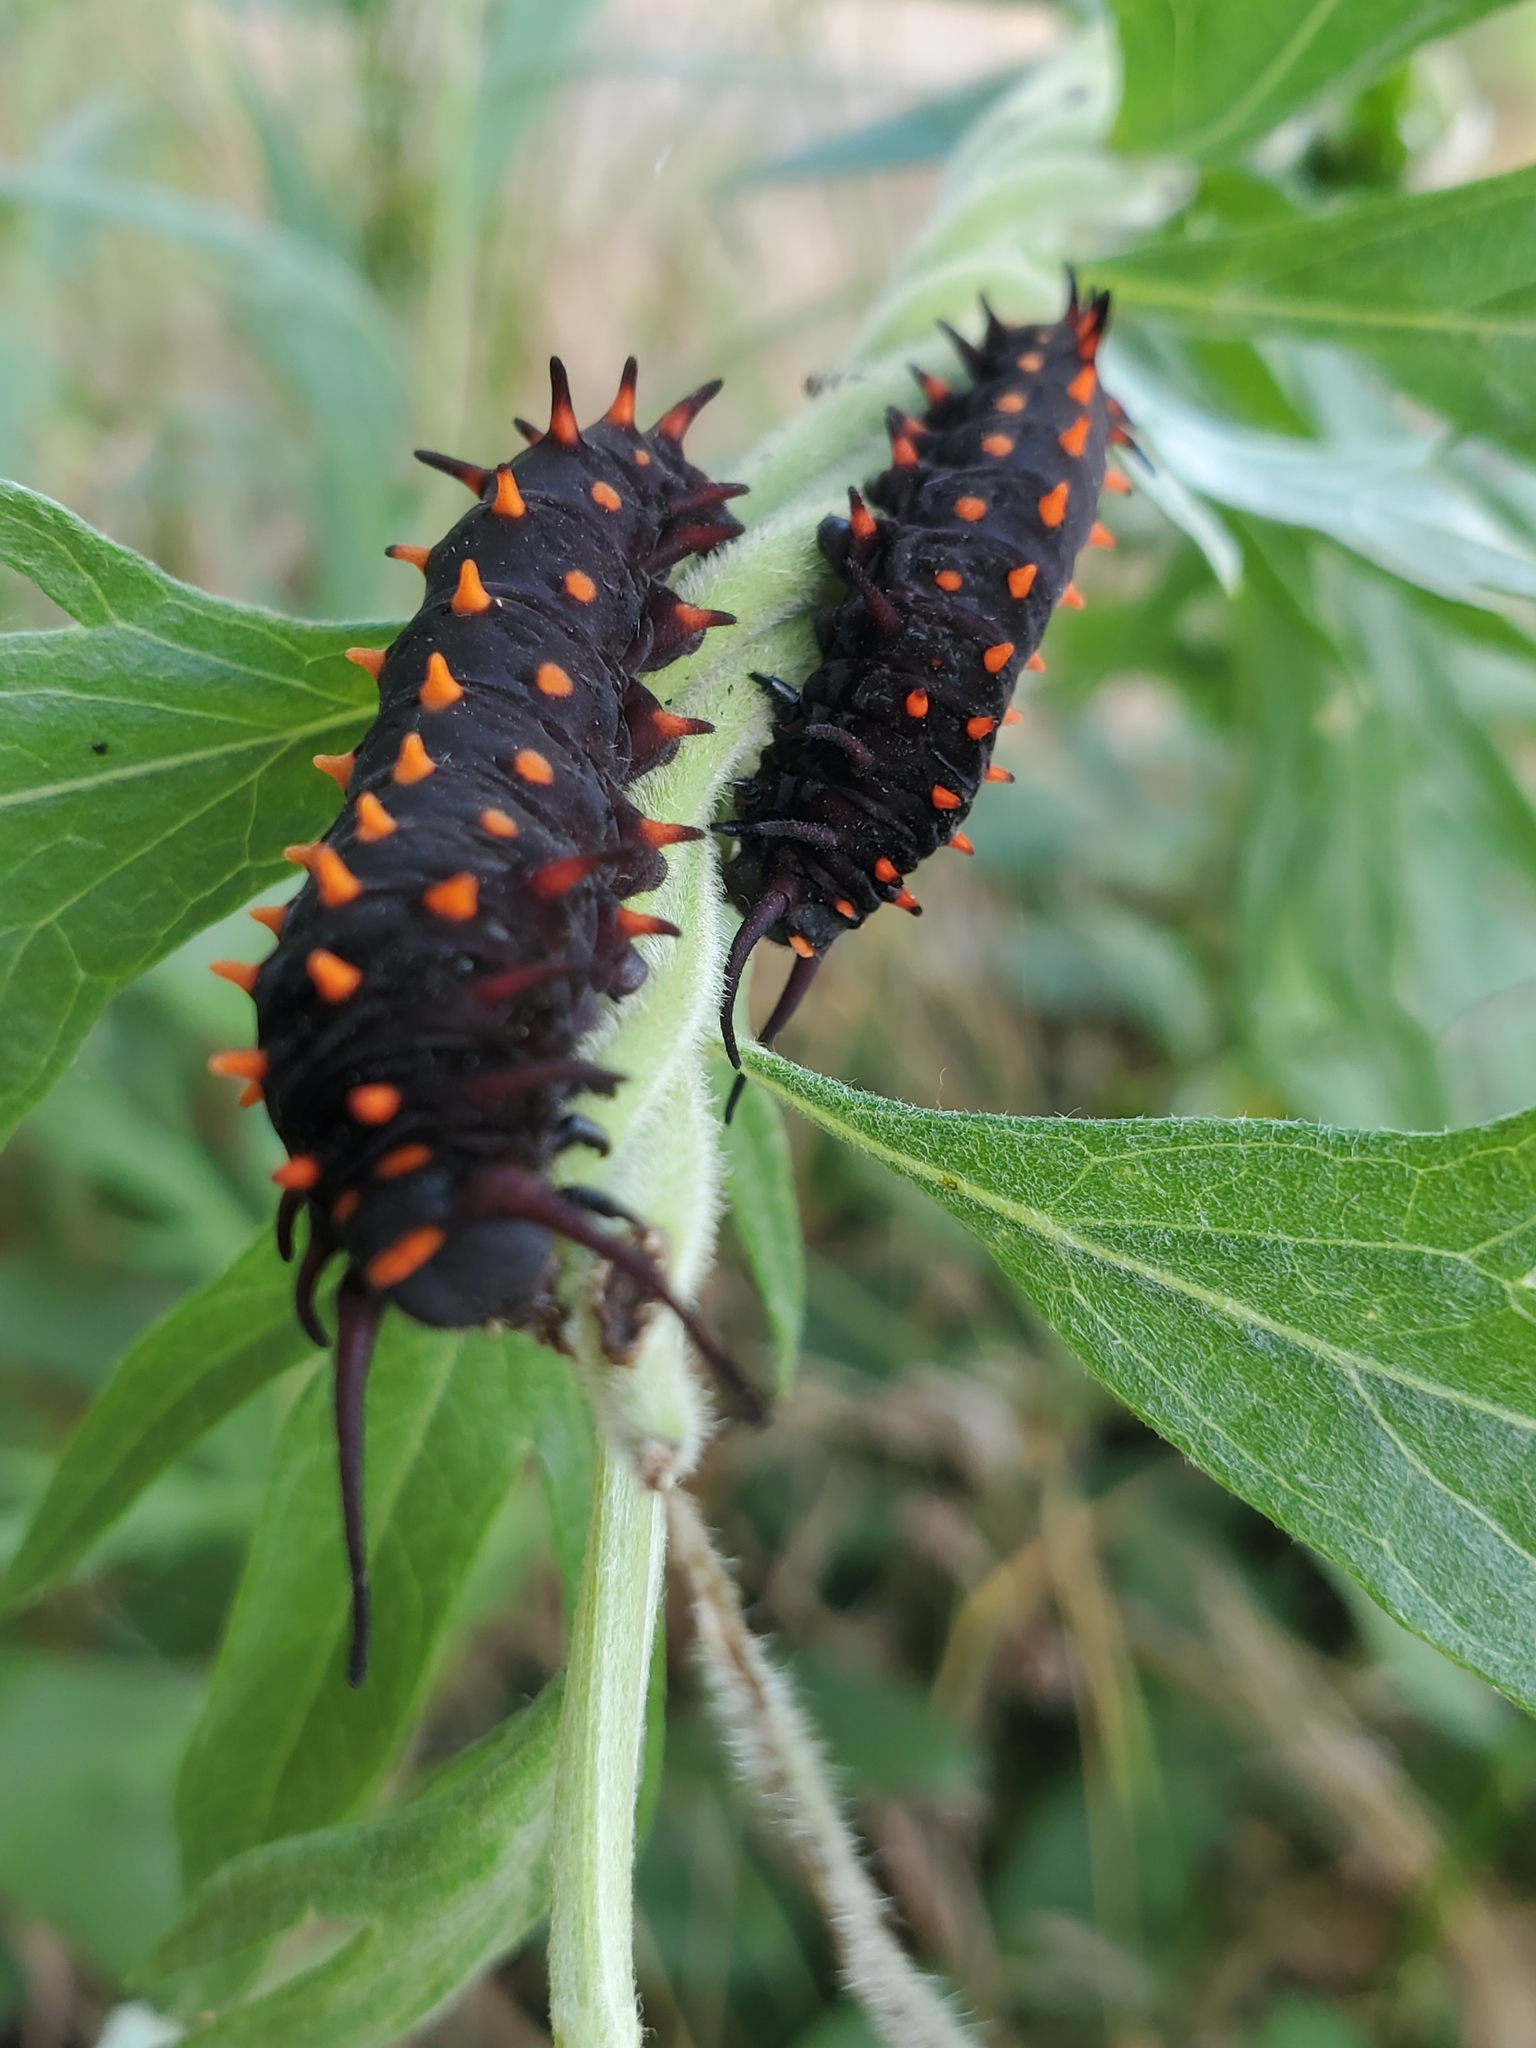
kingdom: Animalia
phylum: Arthropoda
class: Insecta
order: Lepidoptera
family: Papilionidae
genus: Battus
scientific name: Battus philenor
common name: Pipevine swallowtail
